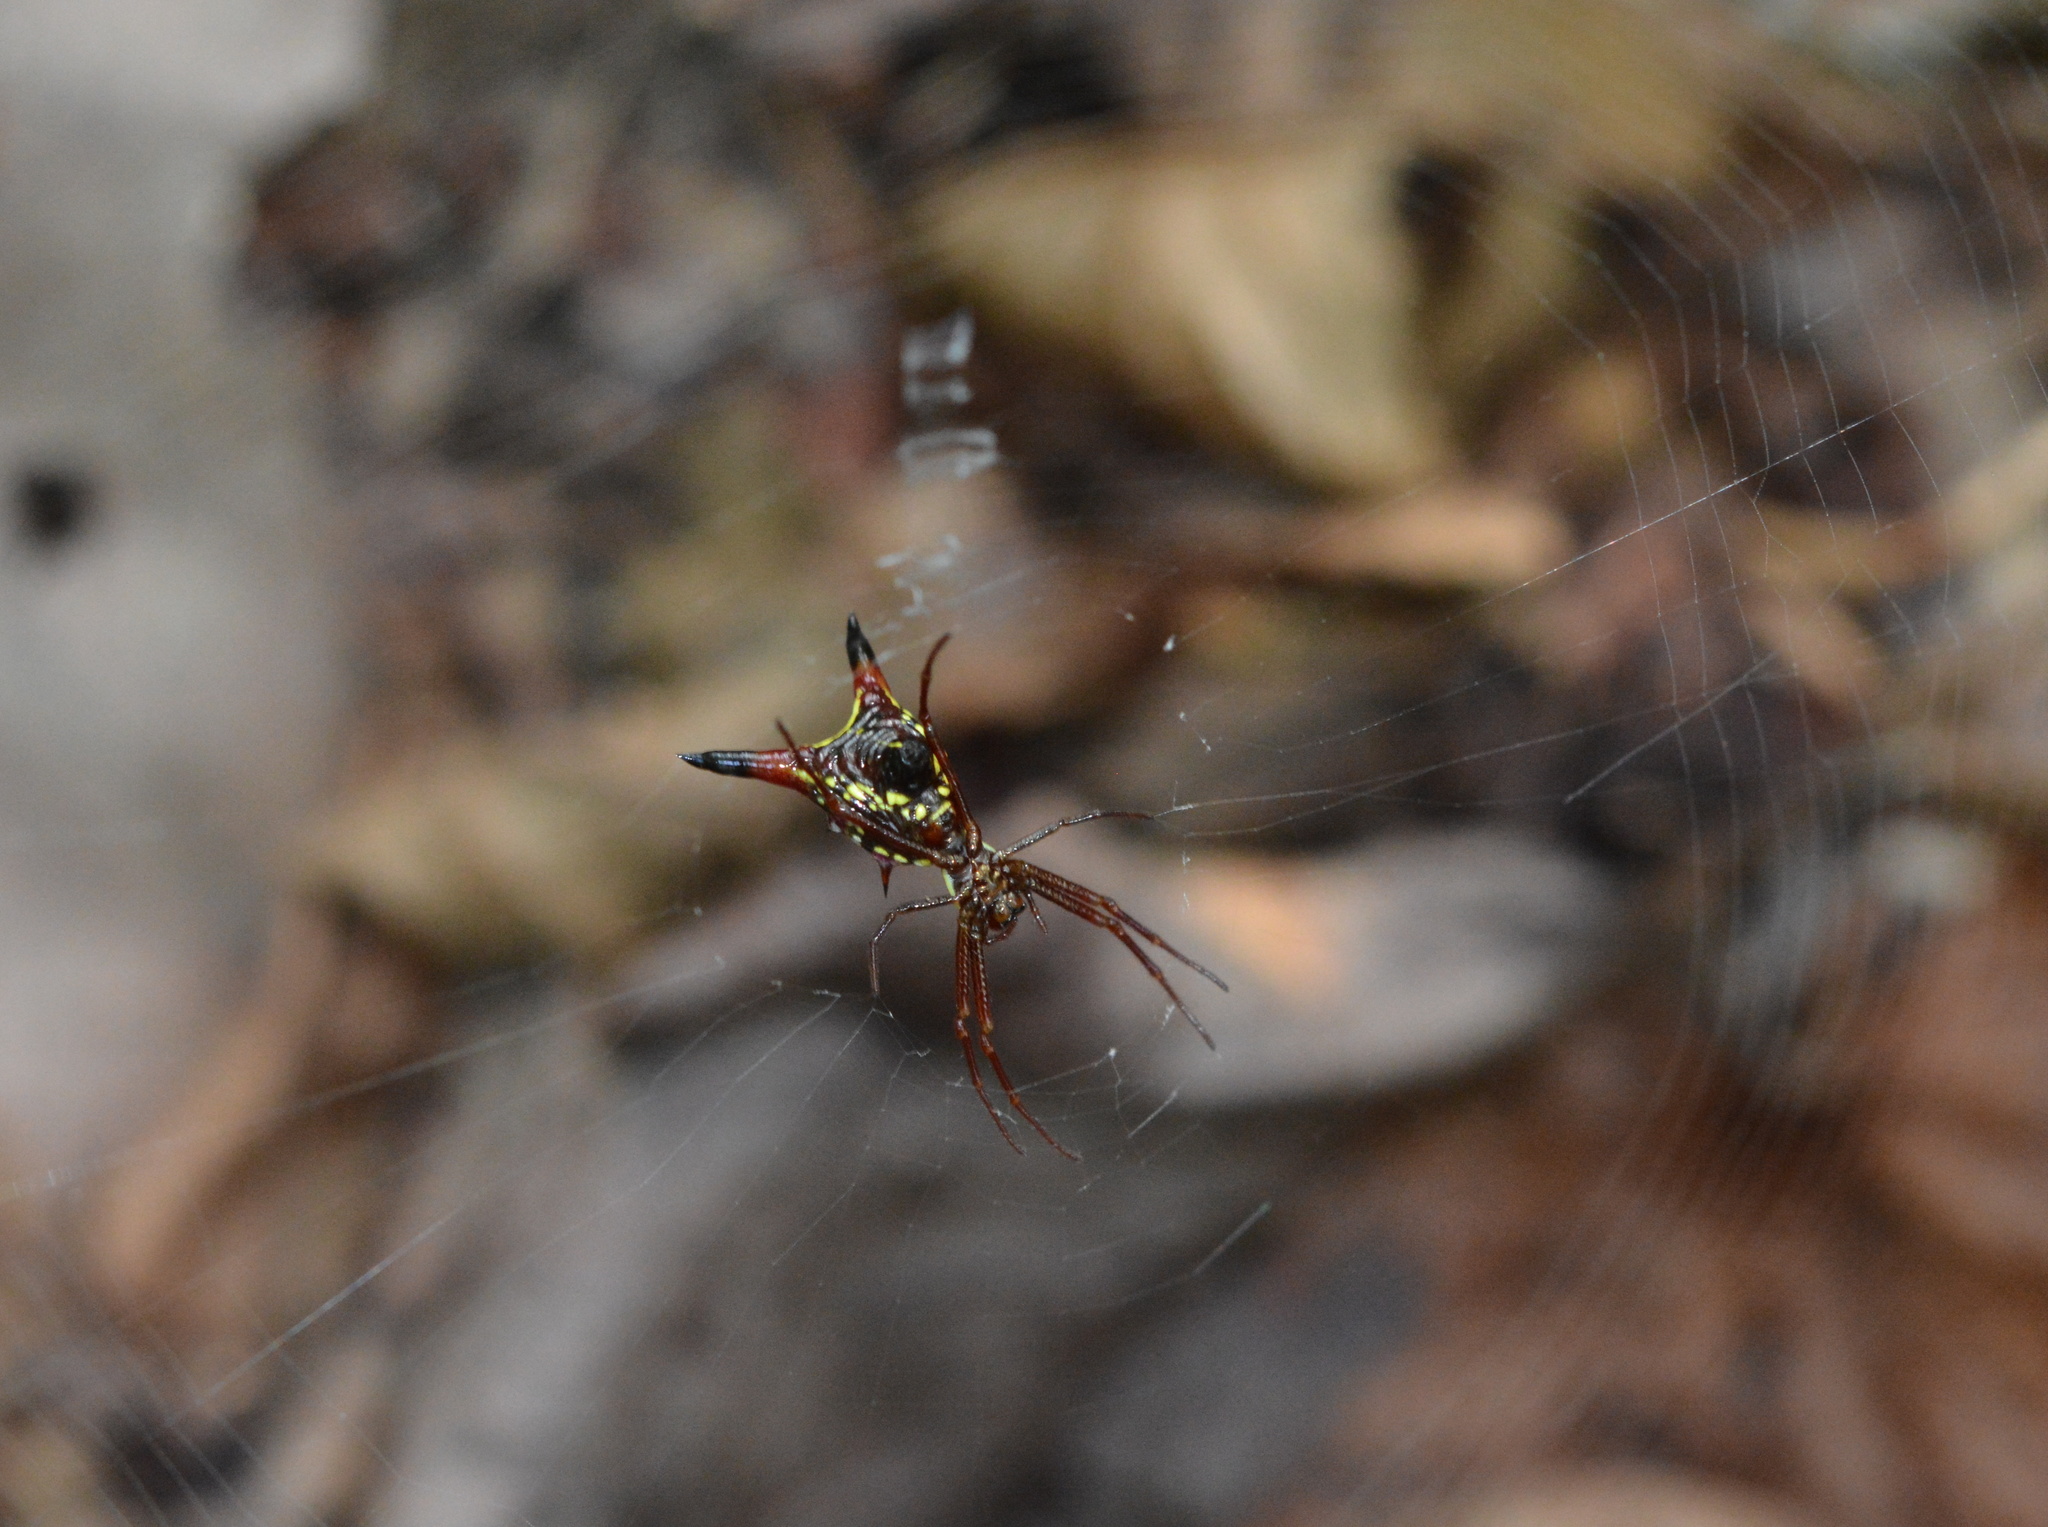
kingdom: Animalia
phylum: Arthropoda
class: Arachnida
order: Araneae
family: Araneidae
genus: Micrathena
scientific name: Micrathena sagittata
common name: Orb weavers
